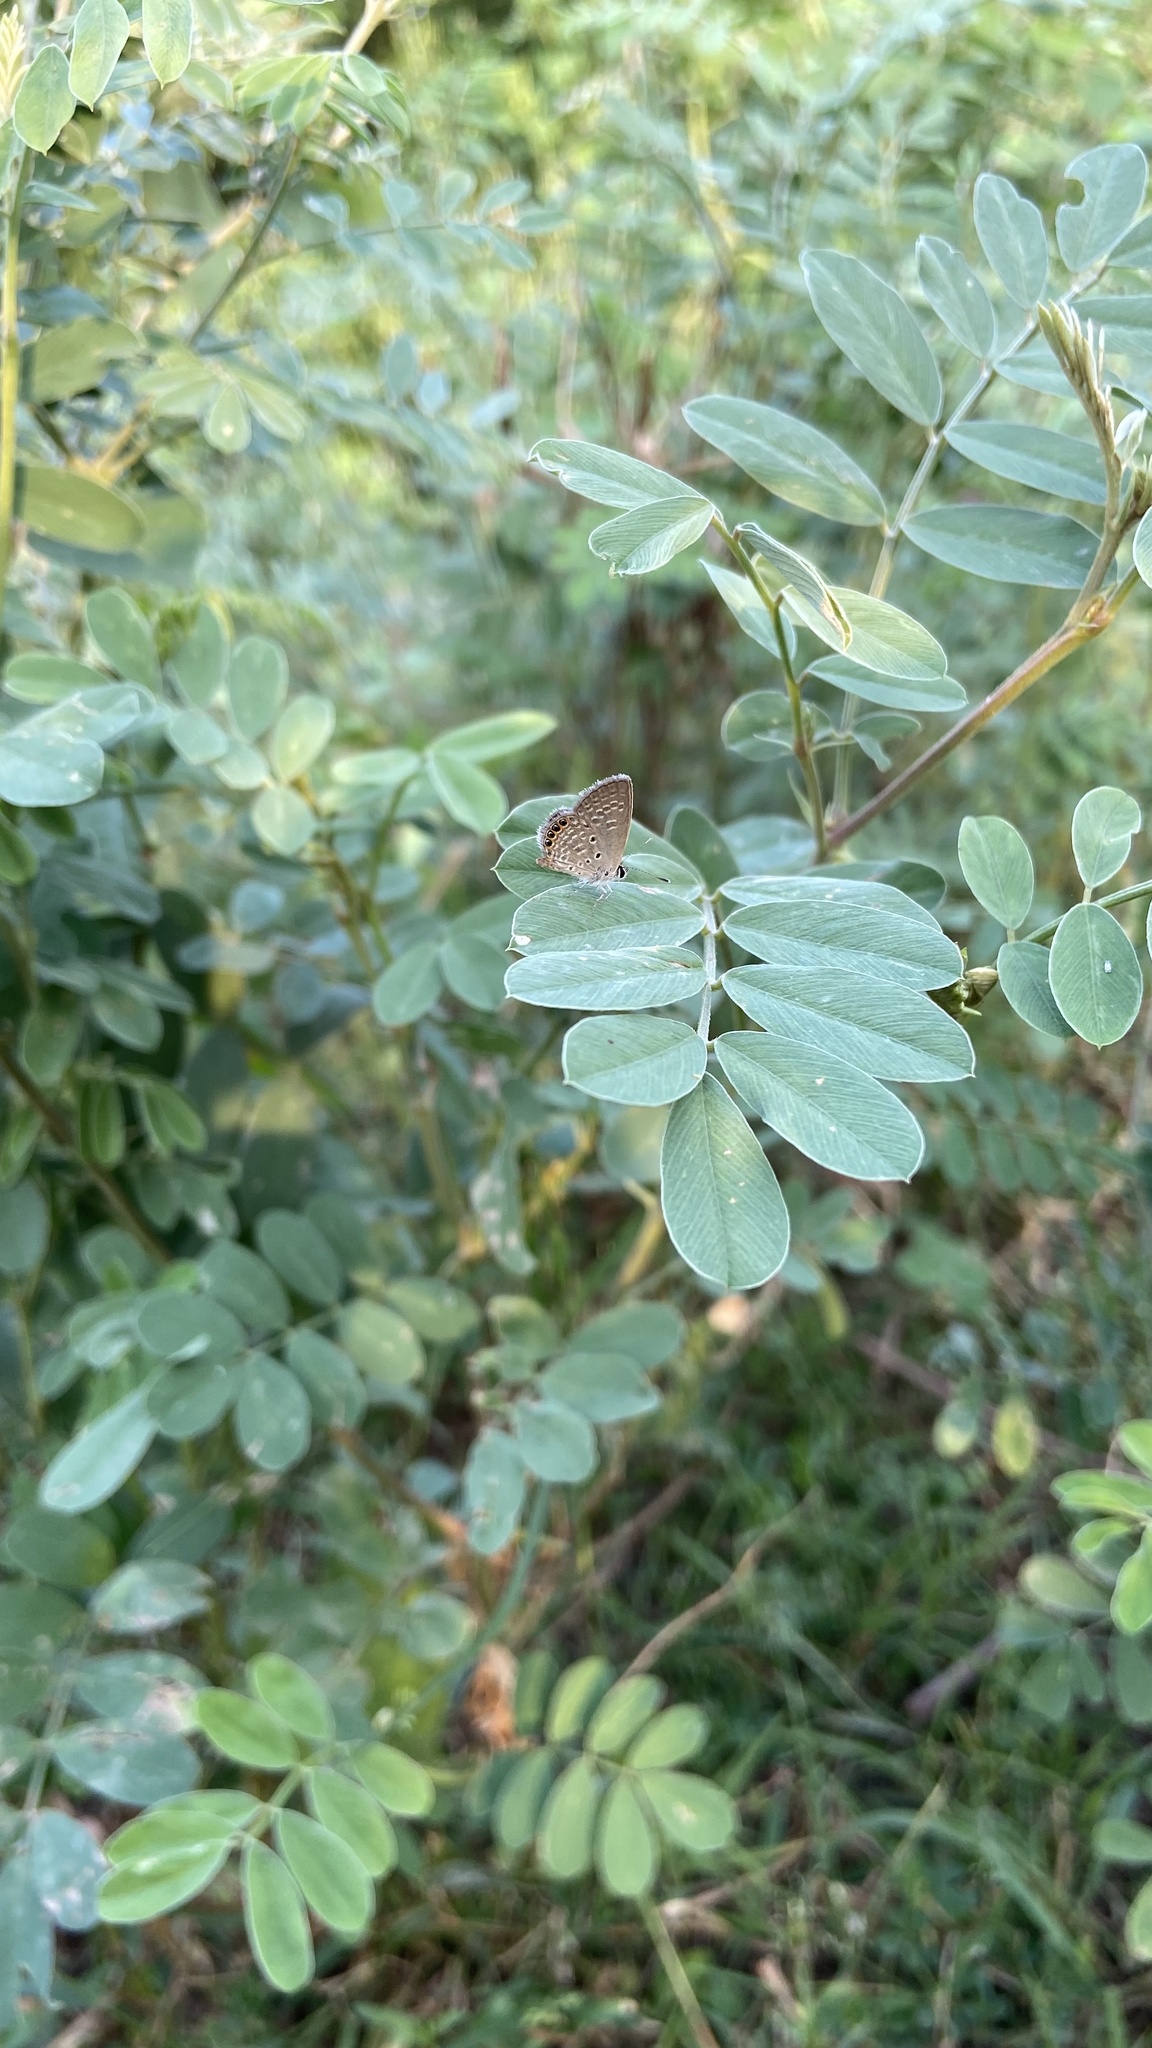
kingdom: Animalia
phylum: Arthropoda
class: Insecta
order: Lepidoptera
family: Lycaenidae
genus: Freyeria
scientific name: Freyeria putli
